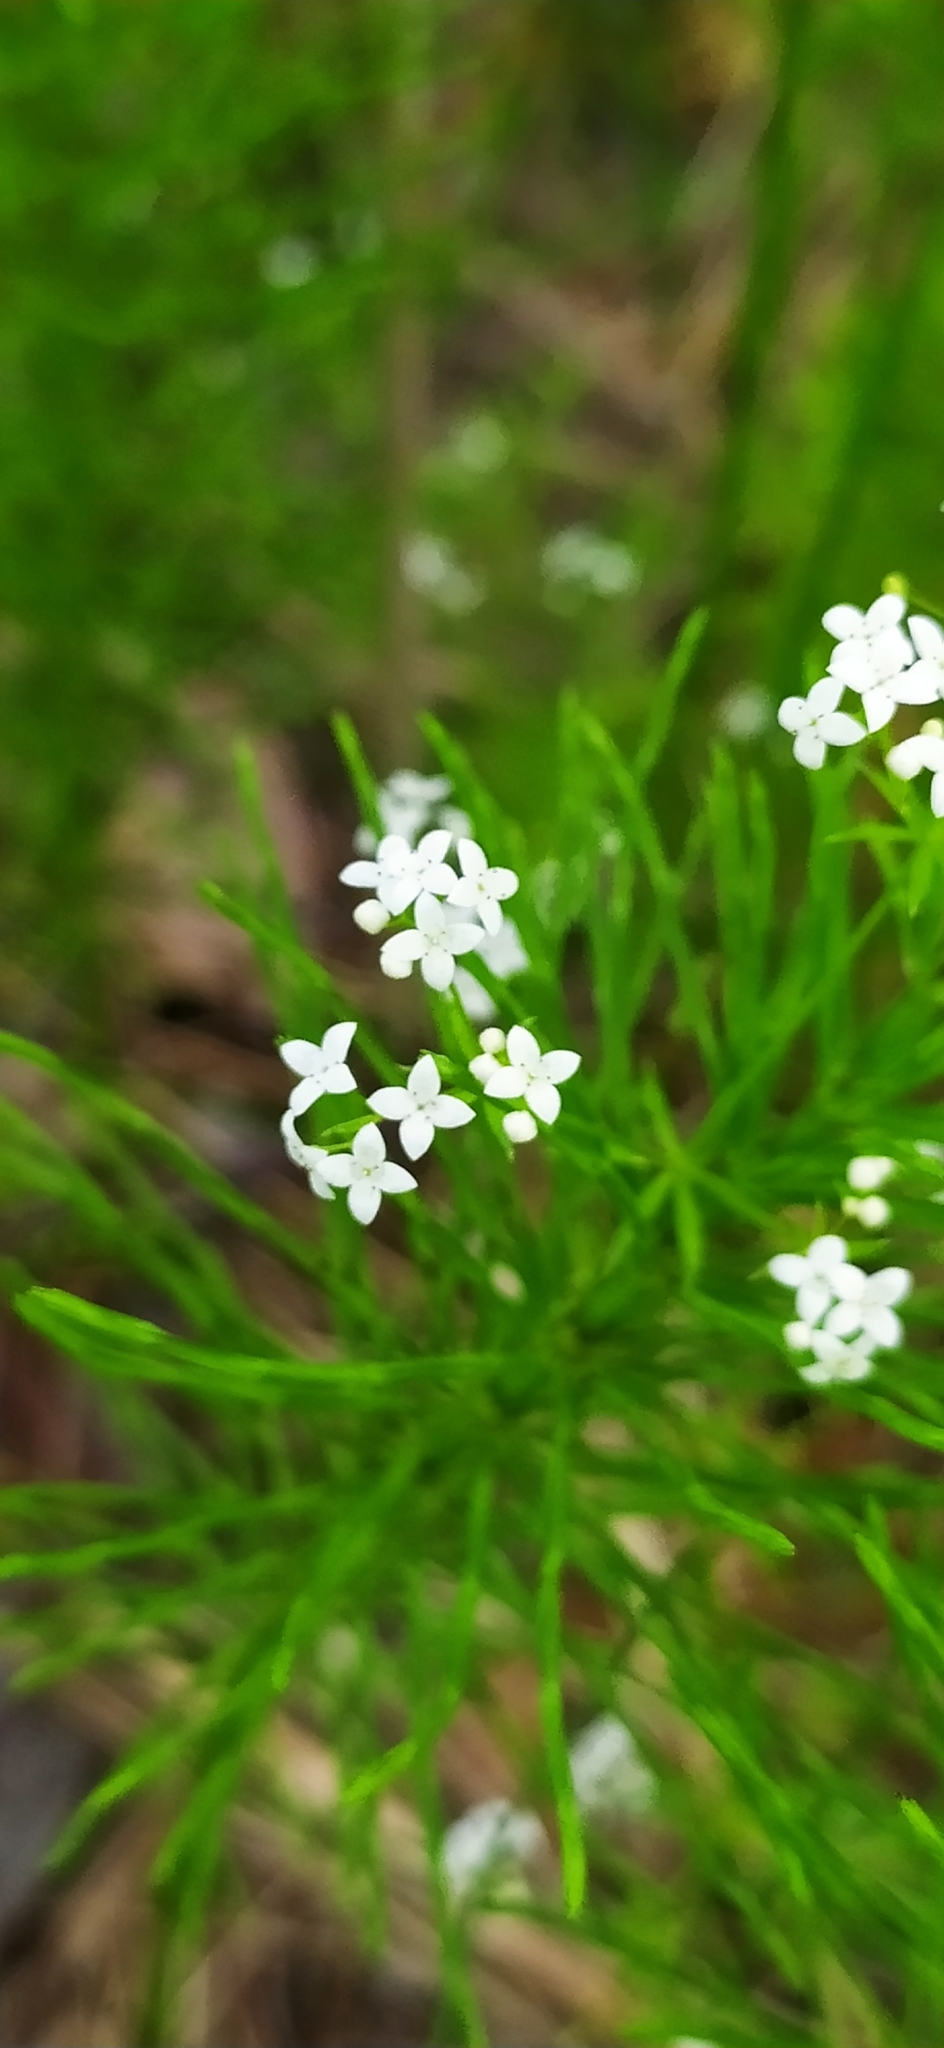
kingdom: Plantae
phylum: Tracheophyta
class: Magnoliopsida
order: Gentianales
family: Rubiaceae
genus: Galium
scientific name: Galium uliginosum
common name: Fen bedstraw
